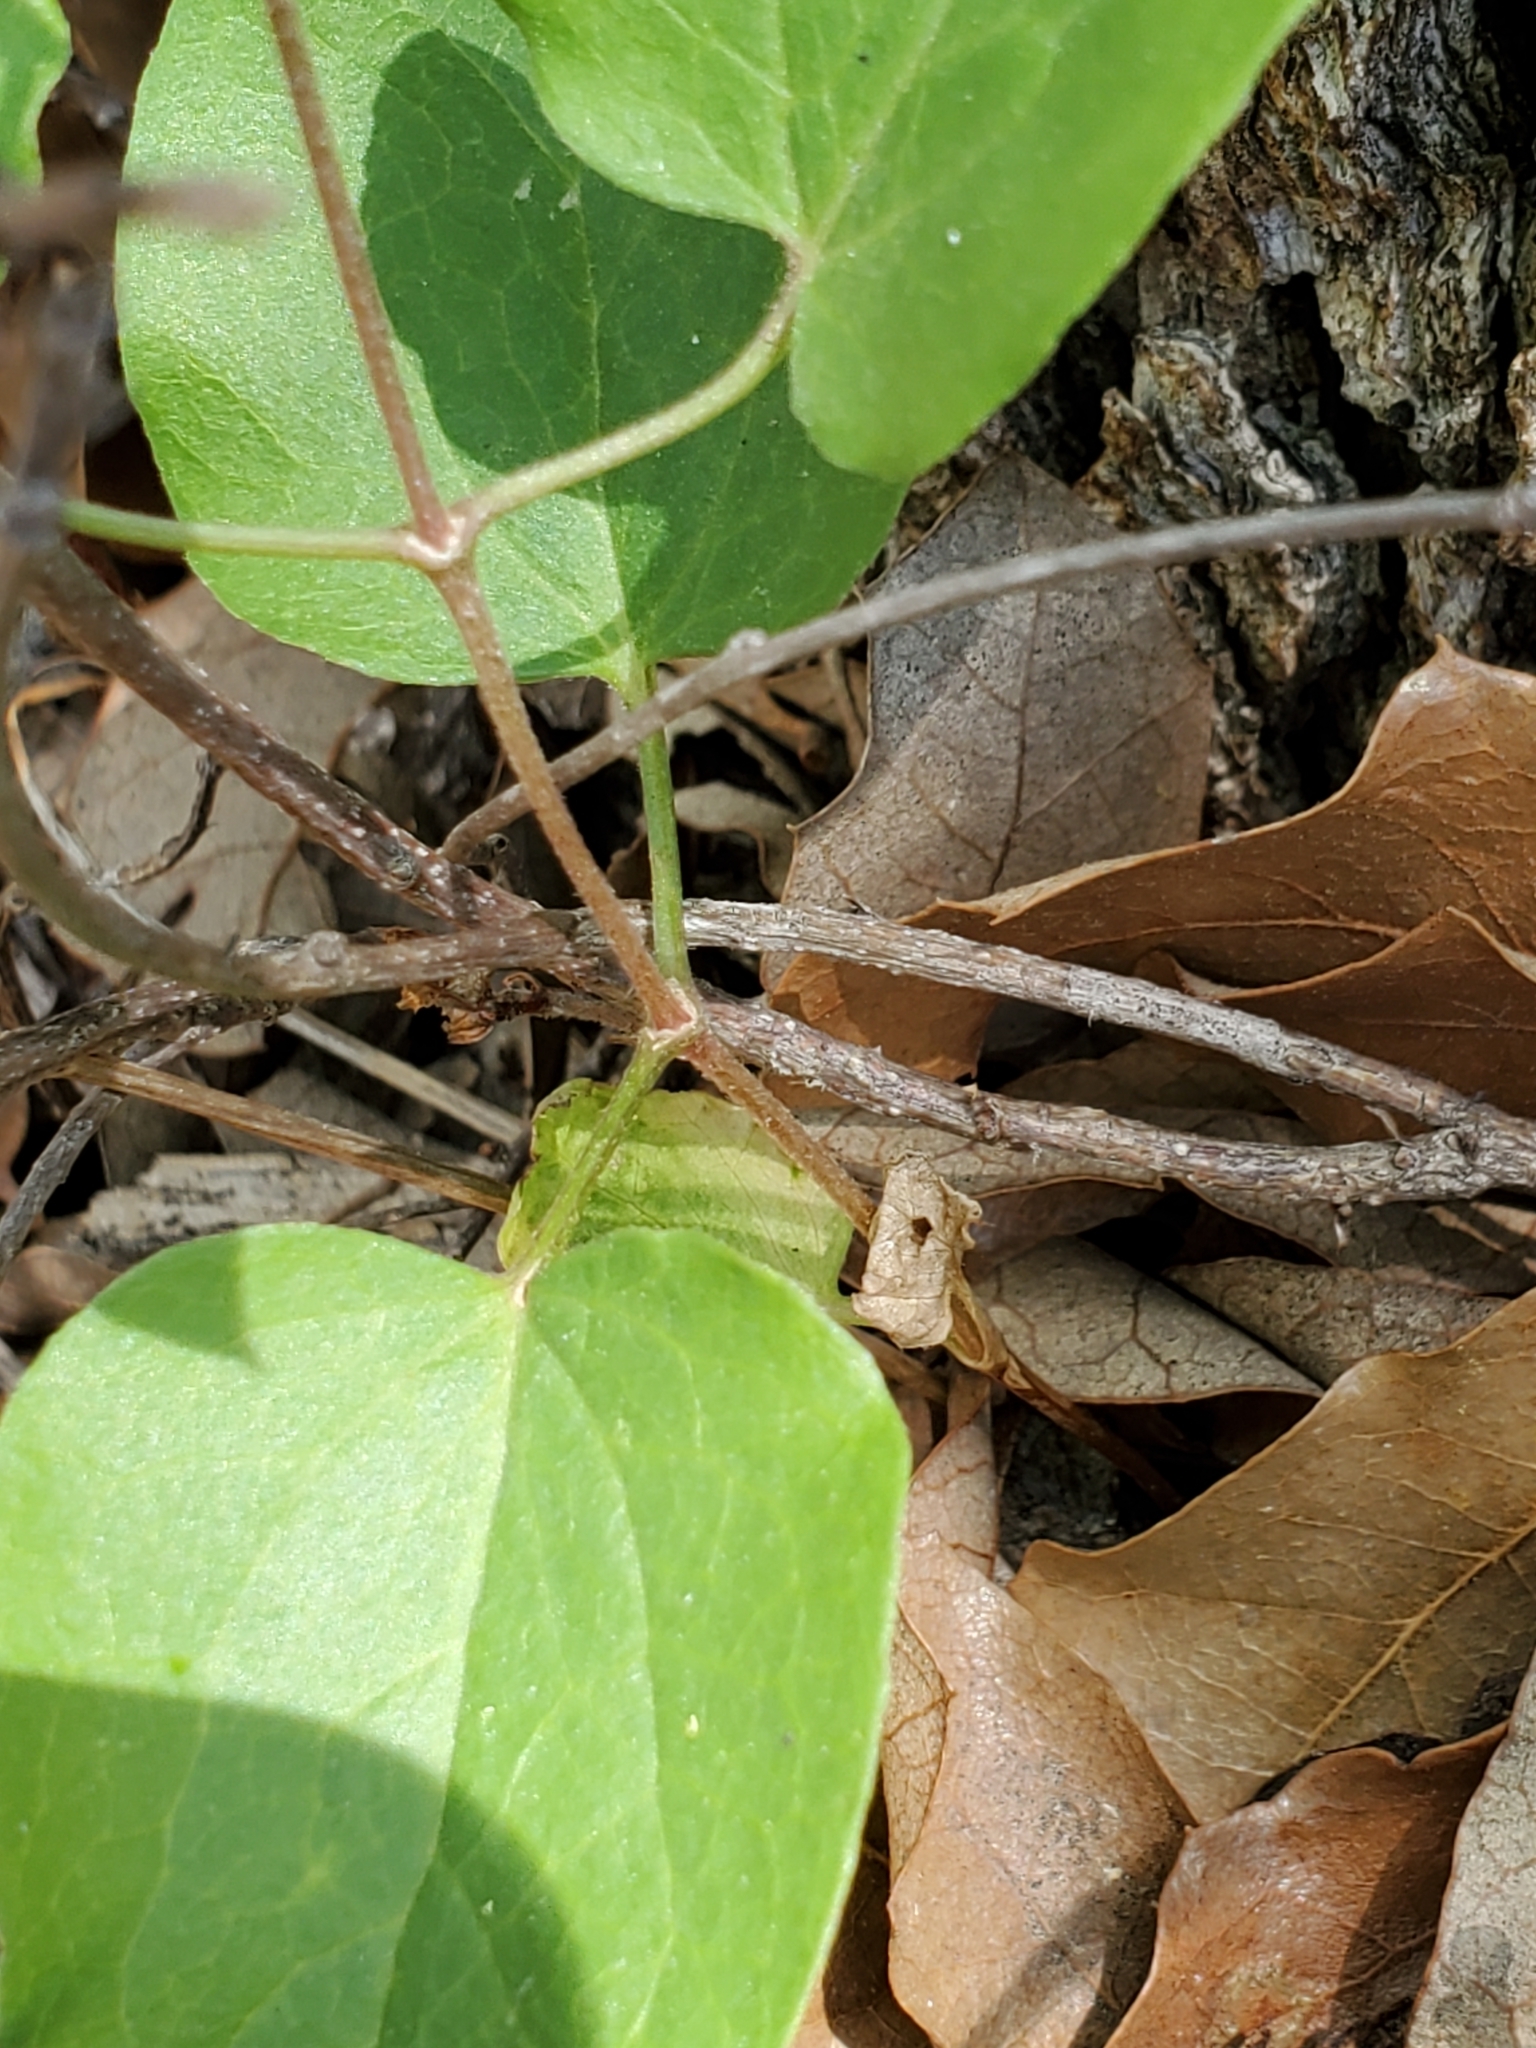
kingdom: Plantae
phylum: Tracheophyta
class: Magnoliopsida
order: Ranunculales
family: Ranunculaceae
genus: Clematis
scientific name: Clematis pitcheri
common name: Bellflower clematis
